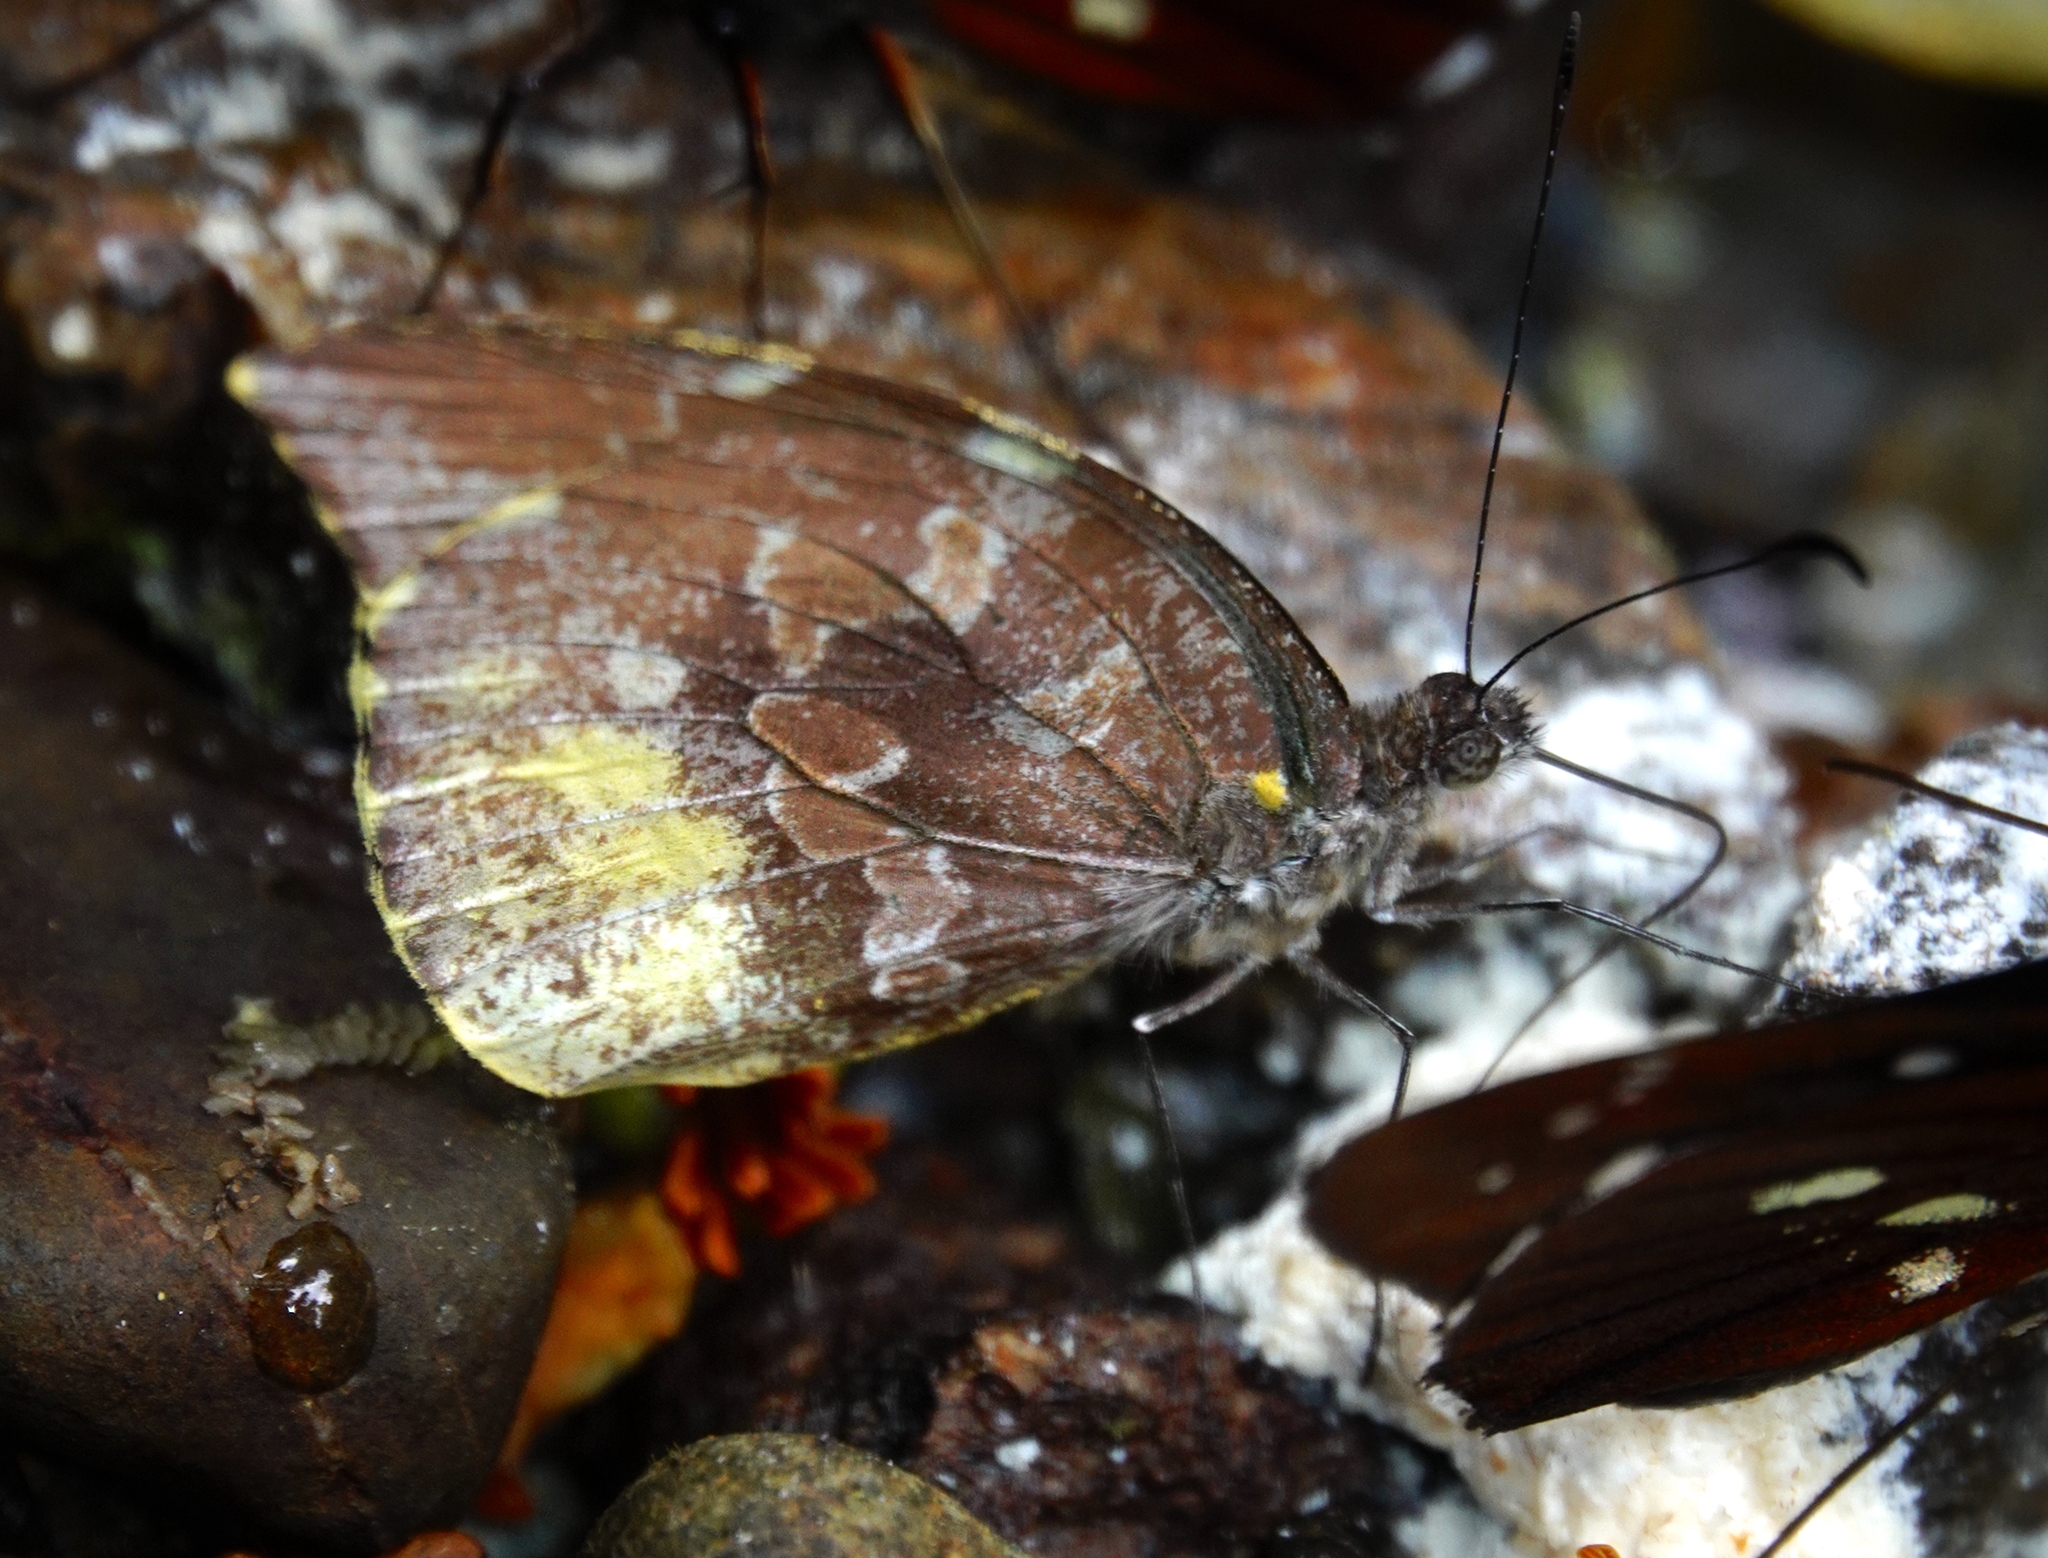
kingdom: Animalia
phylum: Arthropoda
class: Insecta
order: Lepidoptera
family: Pieridae
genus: Lieinix
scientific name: Lieinix nemesis
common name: Frosted mimic-white
